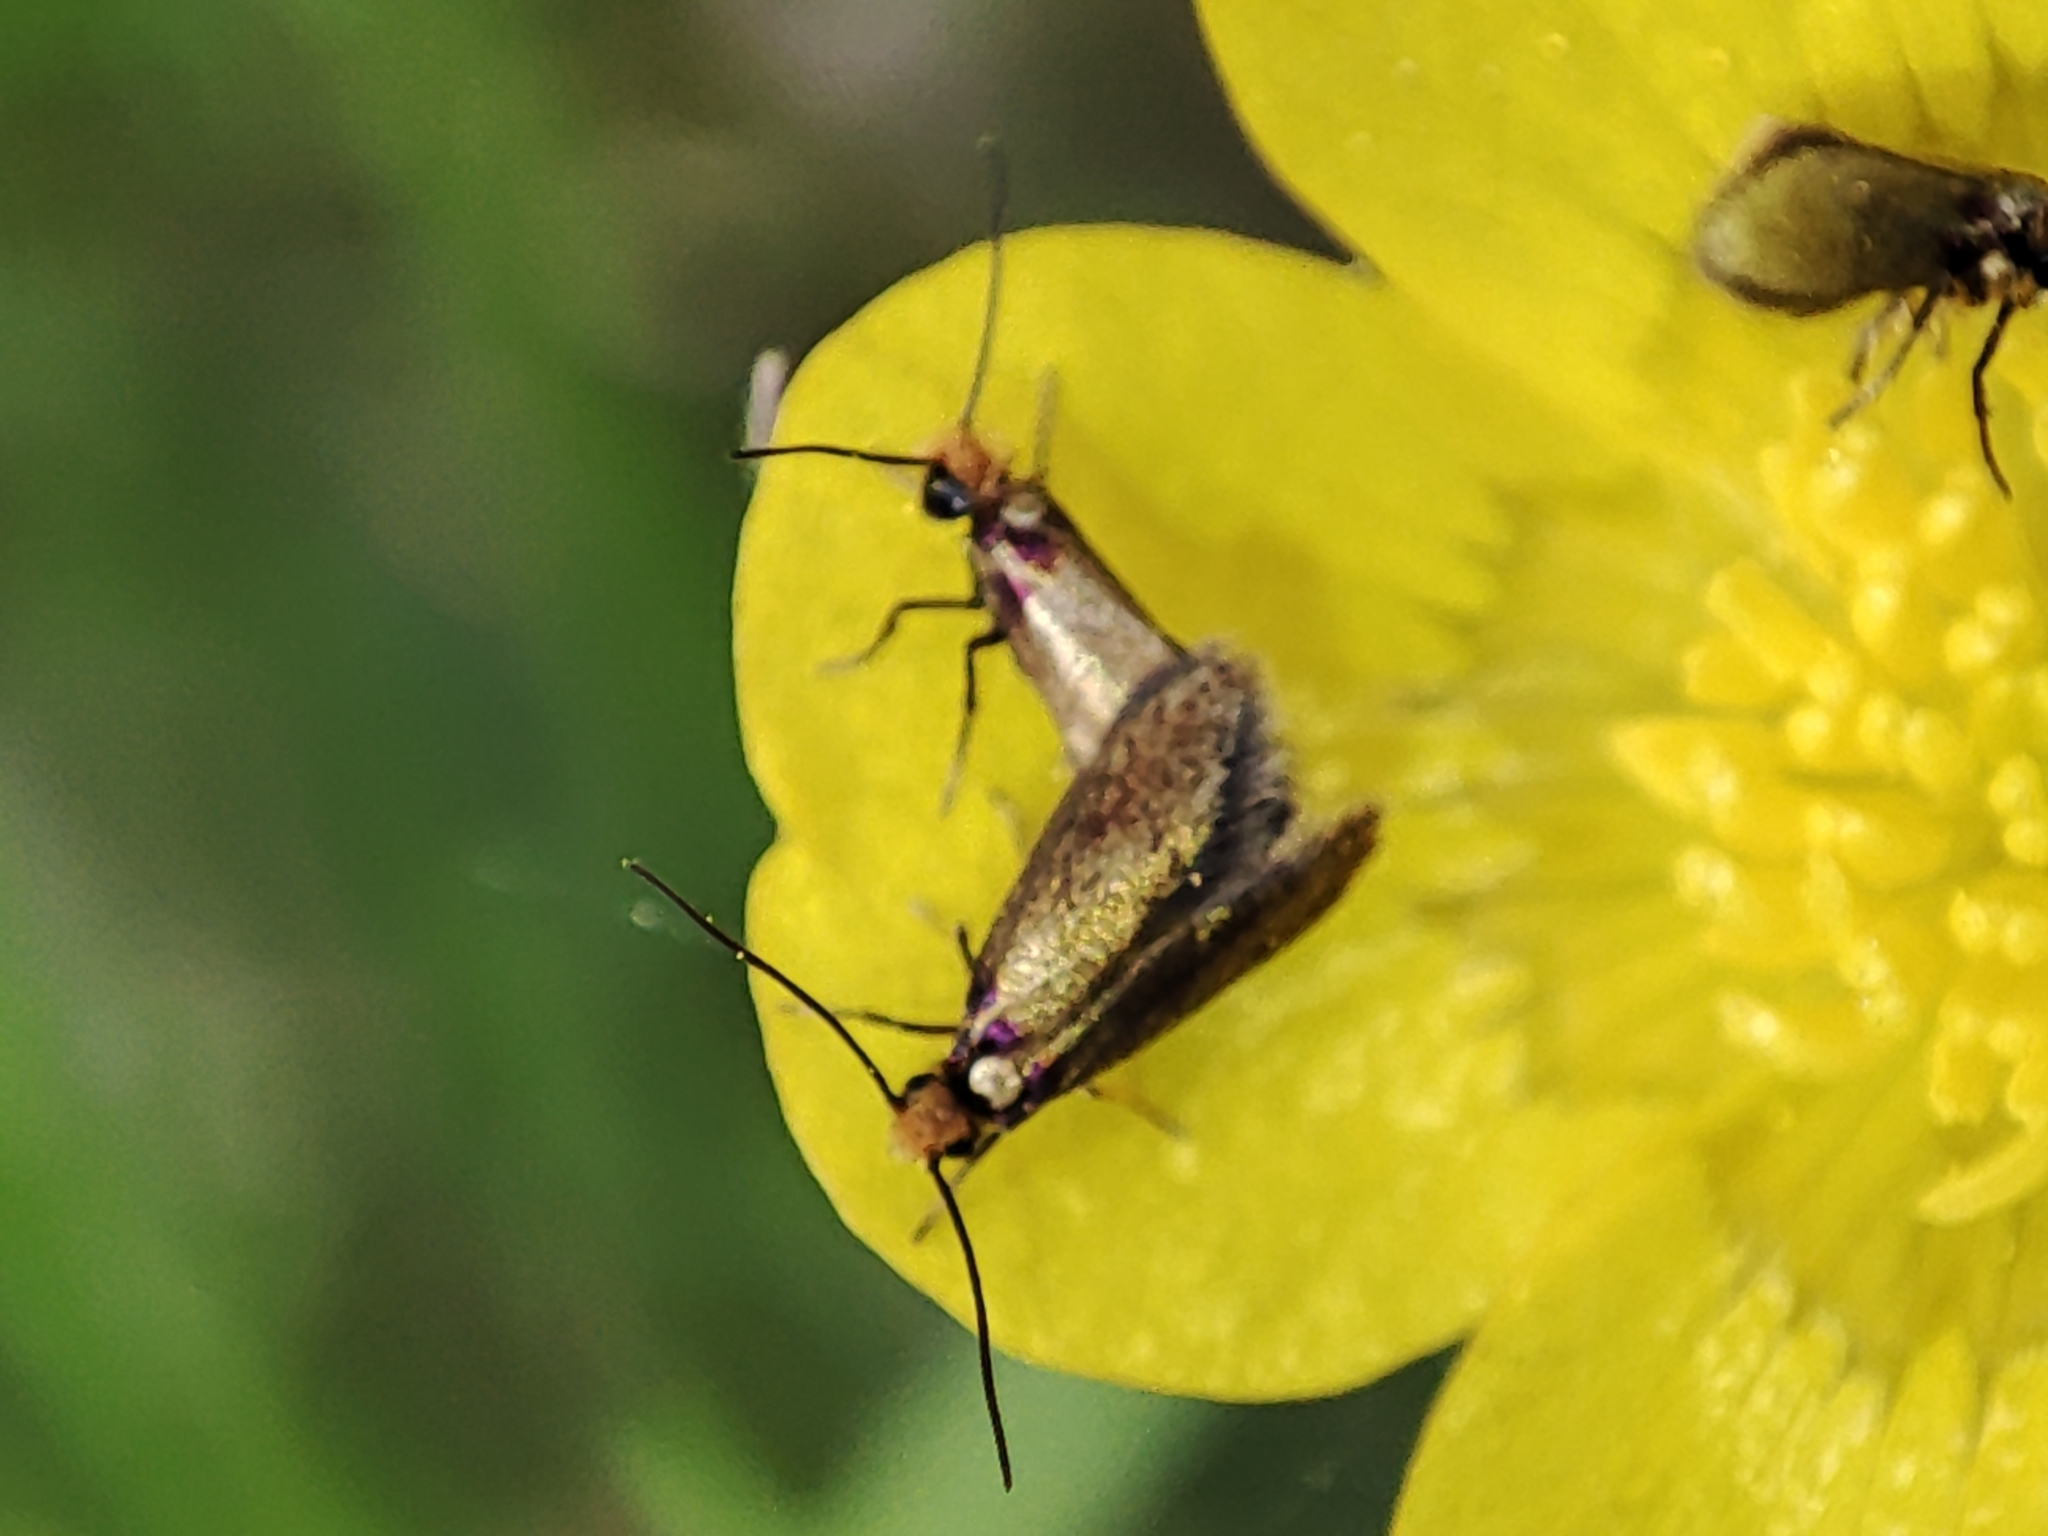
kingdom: Animalia
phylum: Arthropoda
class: Insecta
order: Lepidoptera
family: Micropterigidae
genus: Micropterix
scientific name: Micropterix calthella
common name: Plain gold
